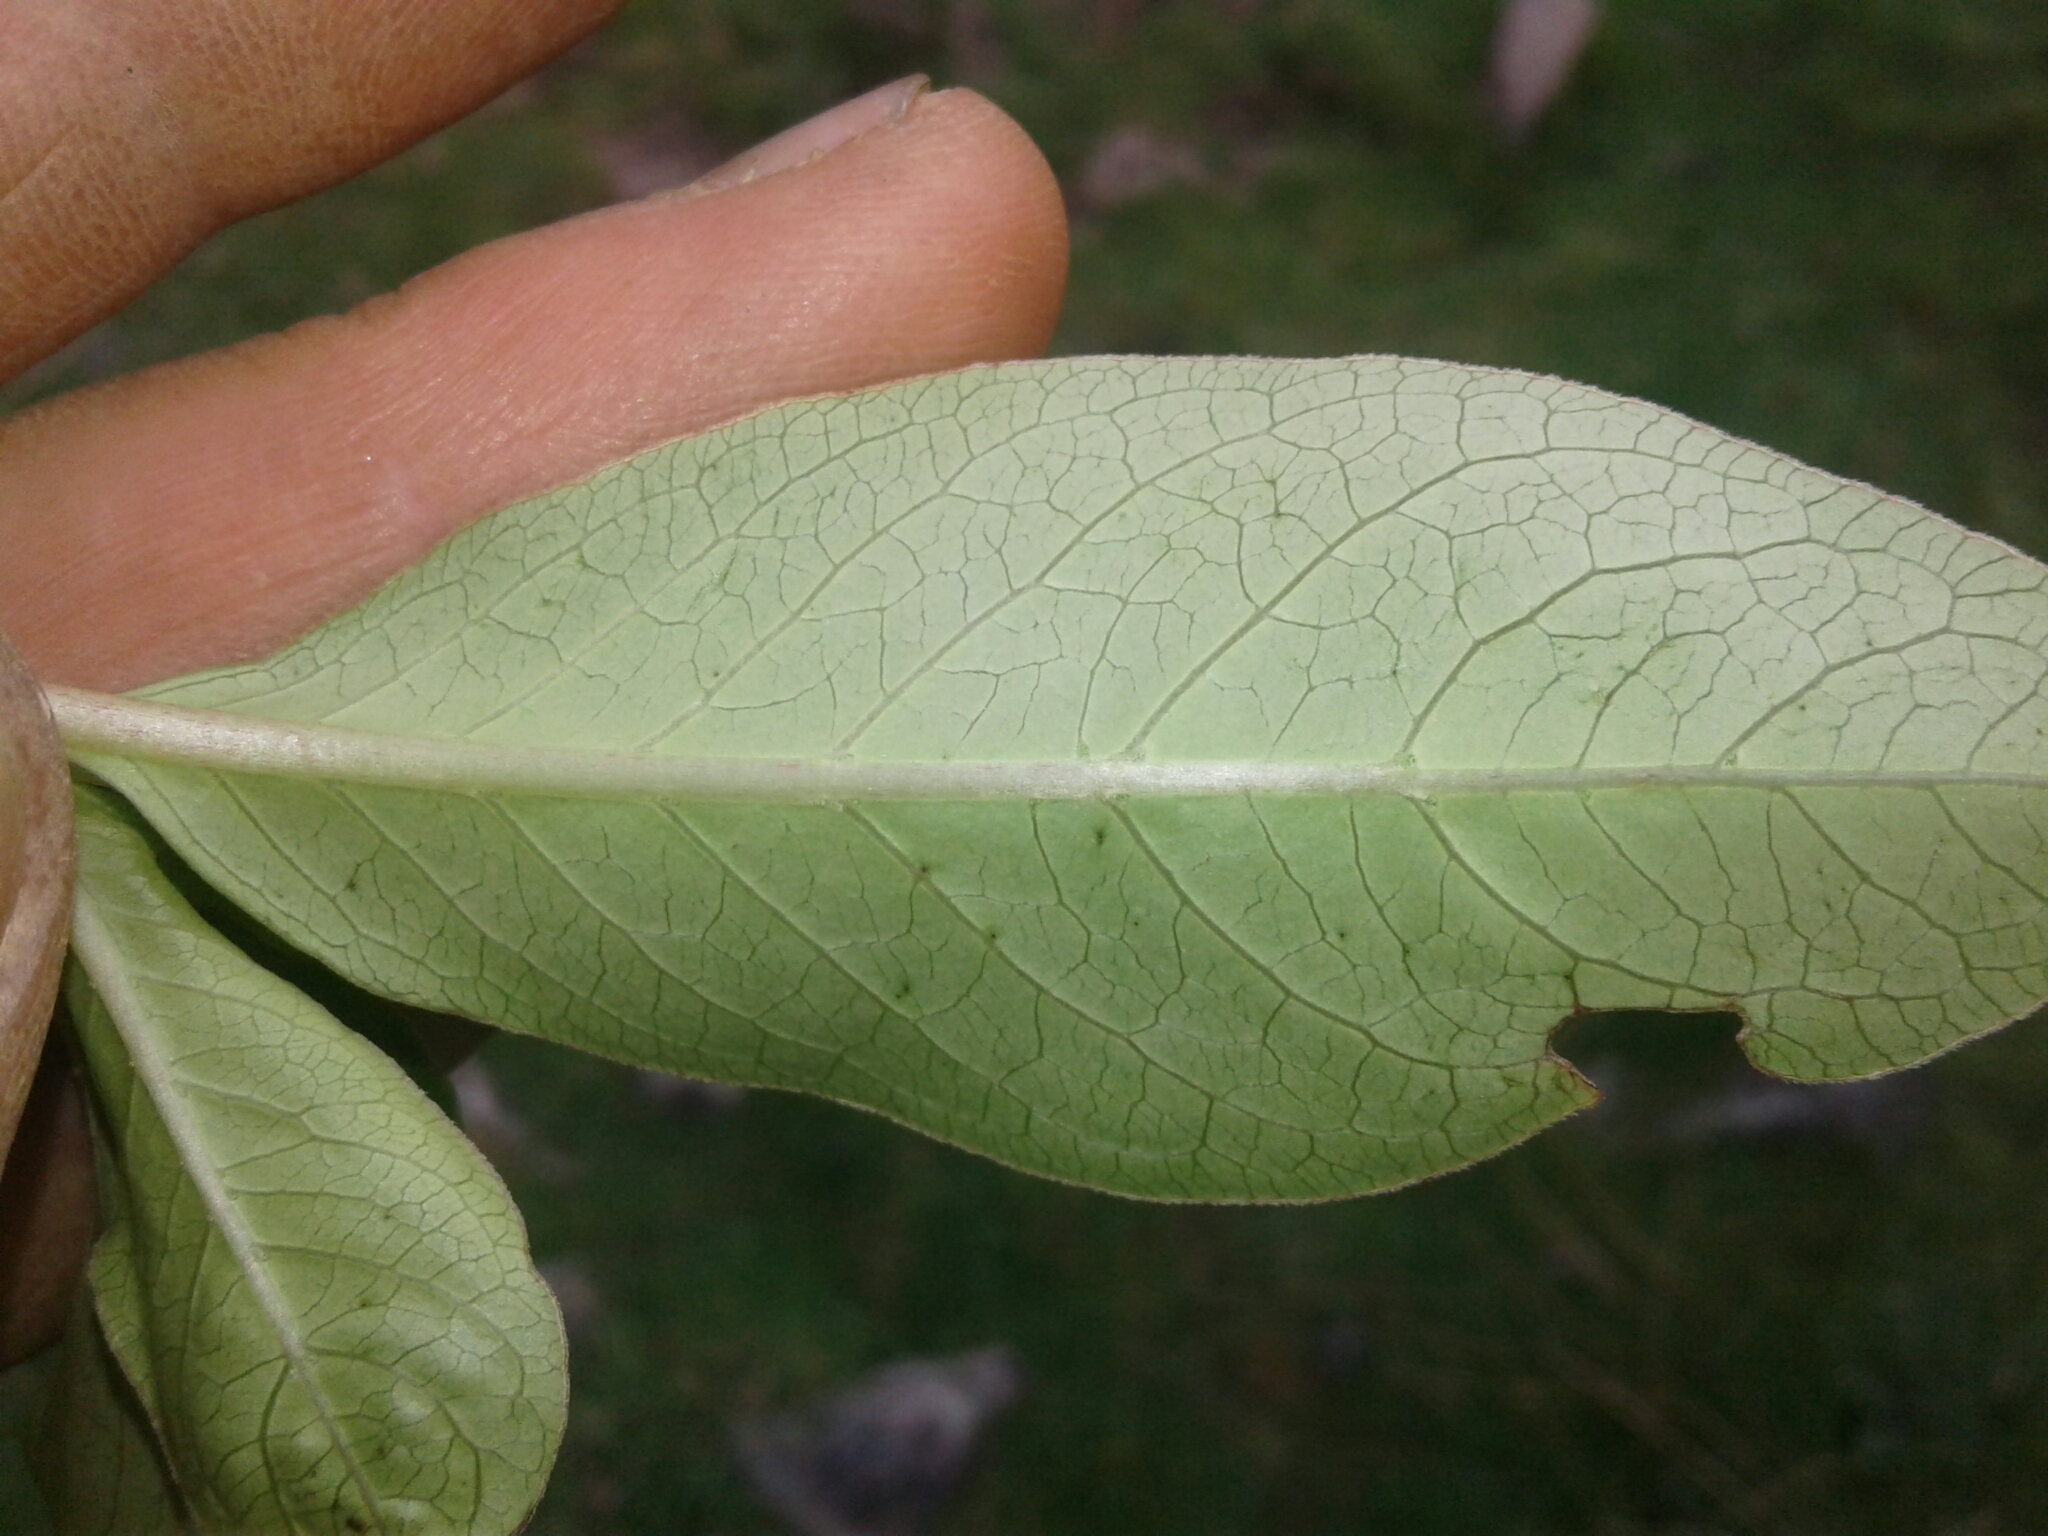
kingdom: Plantae
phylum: Tracheophyta
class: Magnoliopsida
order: Gentianales
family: Rubiaceae
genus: Coprosma
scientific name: Coprosma robusta
